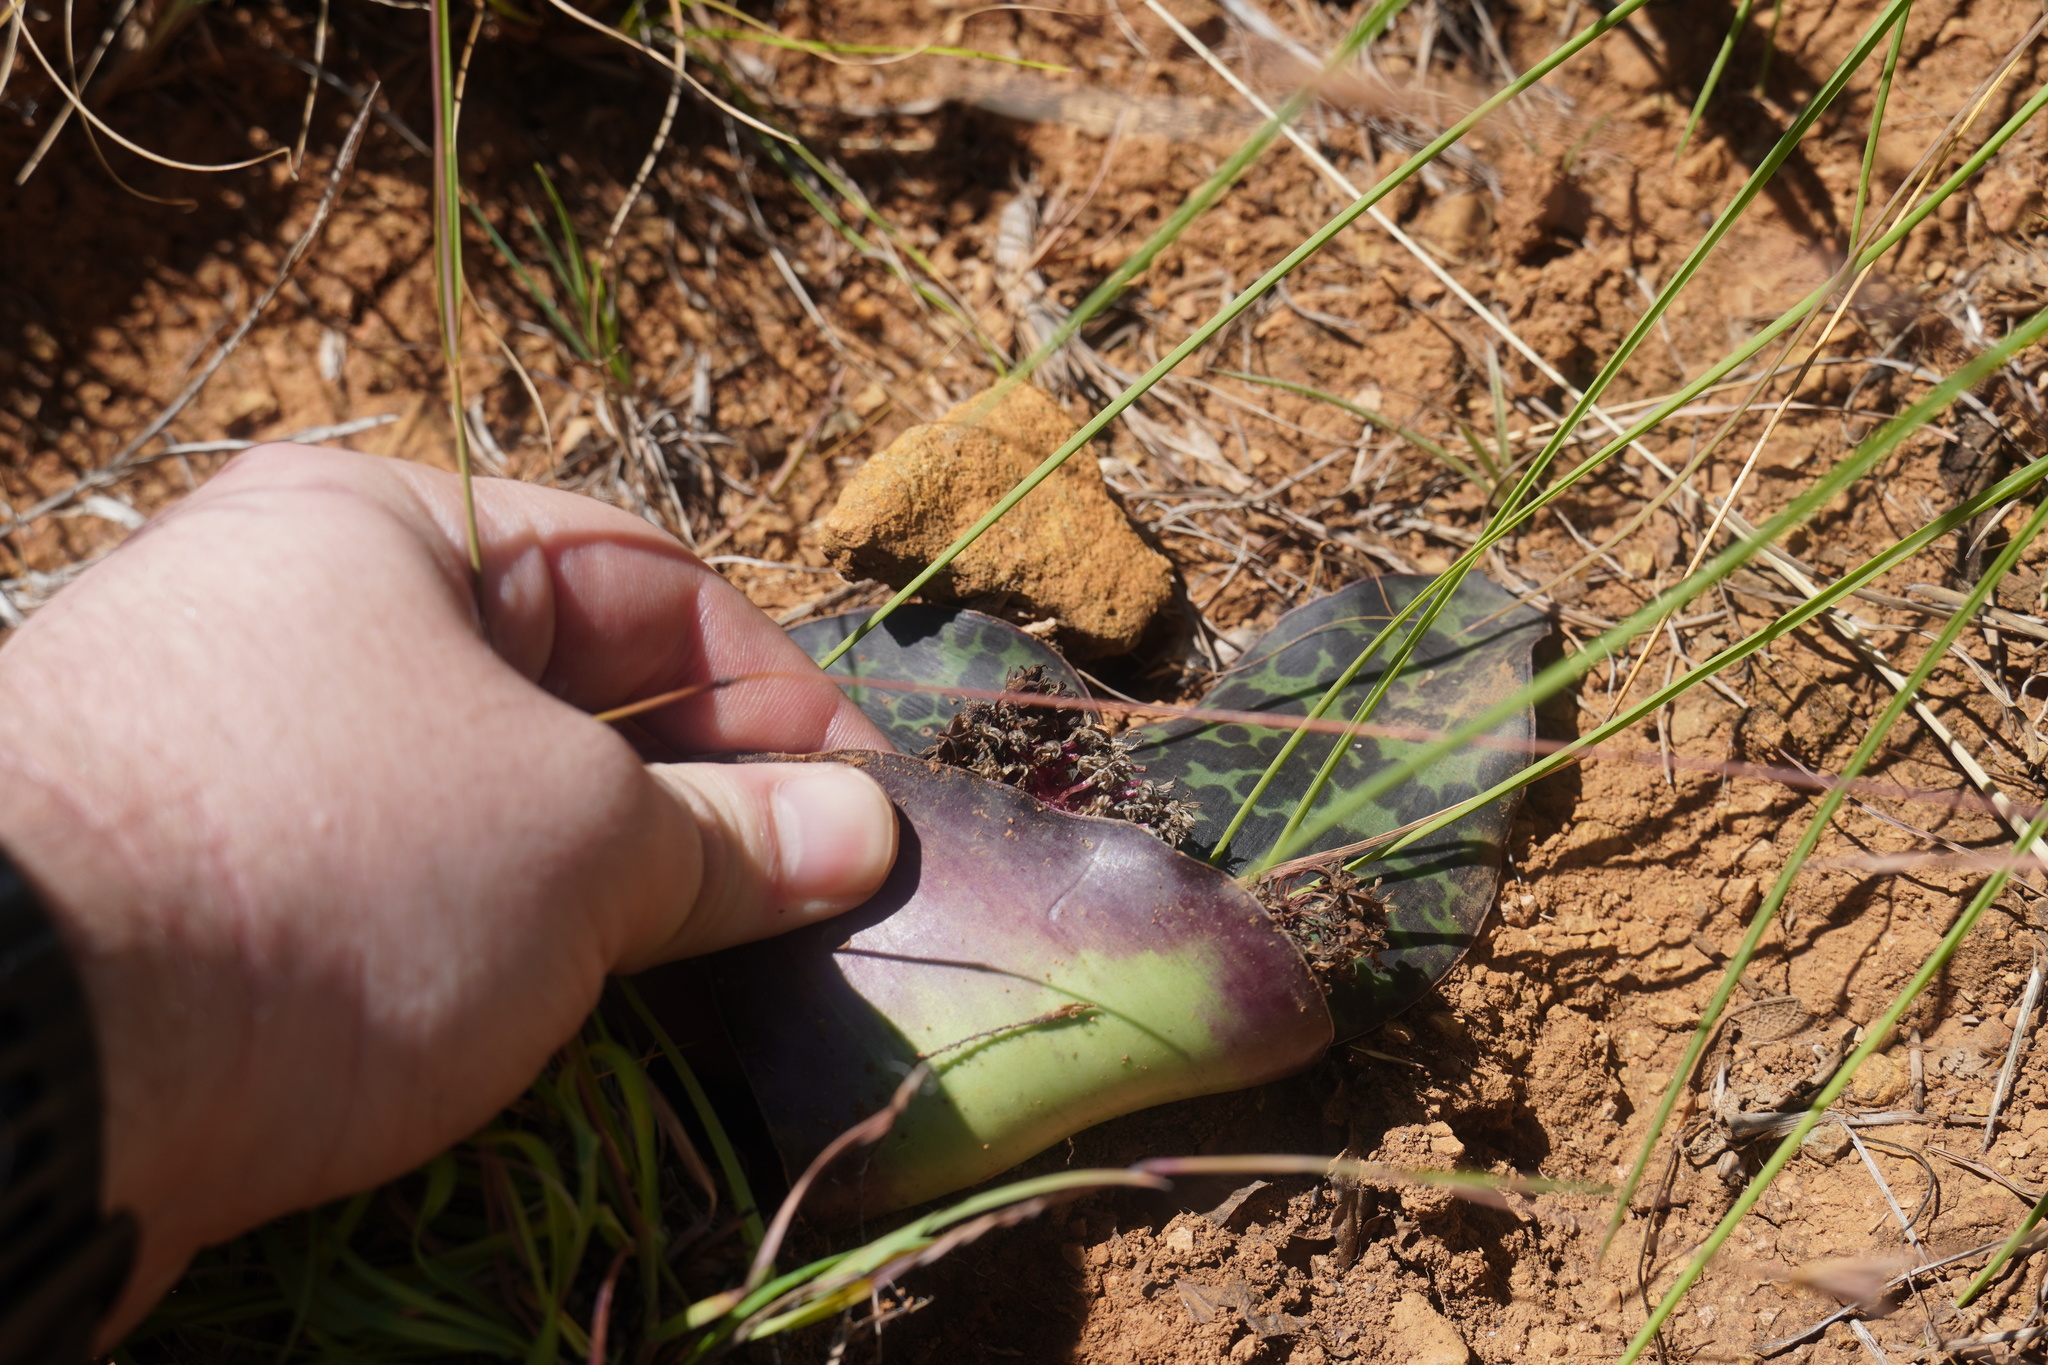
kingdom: Plantae
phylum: Tracheophyta
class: Liliopsida
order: Asparagales
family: Asparagaceae
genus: Ledebouria
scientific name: Ledebouria ovatifolia
